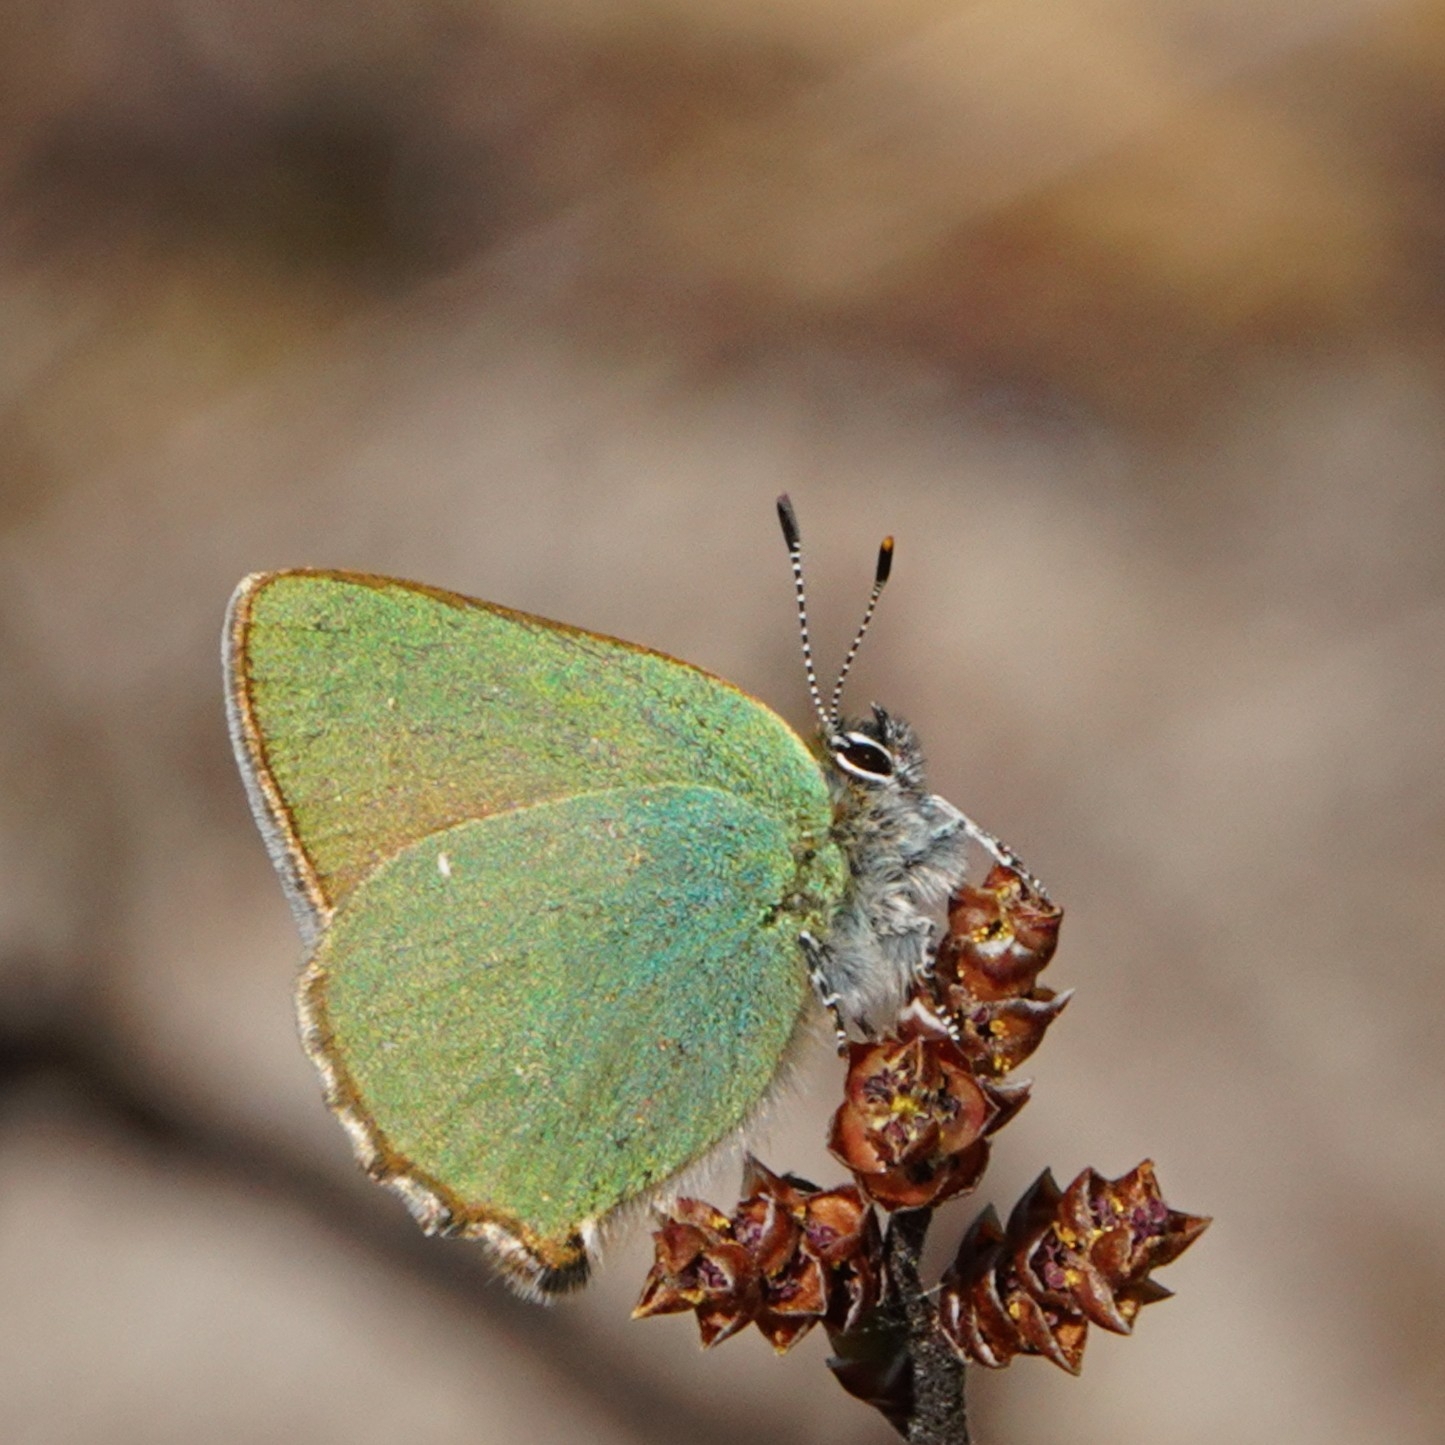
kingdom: Animalia
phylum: Arthropoda
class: Insecta
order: Lepidoptera
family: Lycaenidae
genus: Callophrys
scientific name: Callophrys rubi
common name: Green hairstreak
